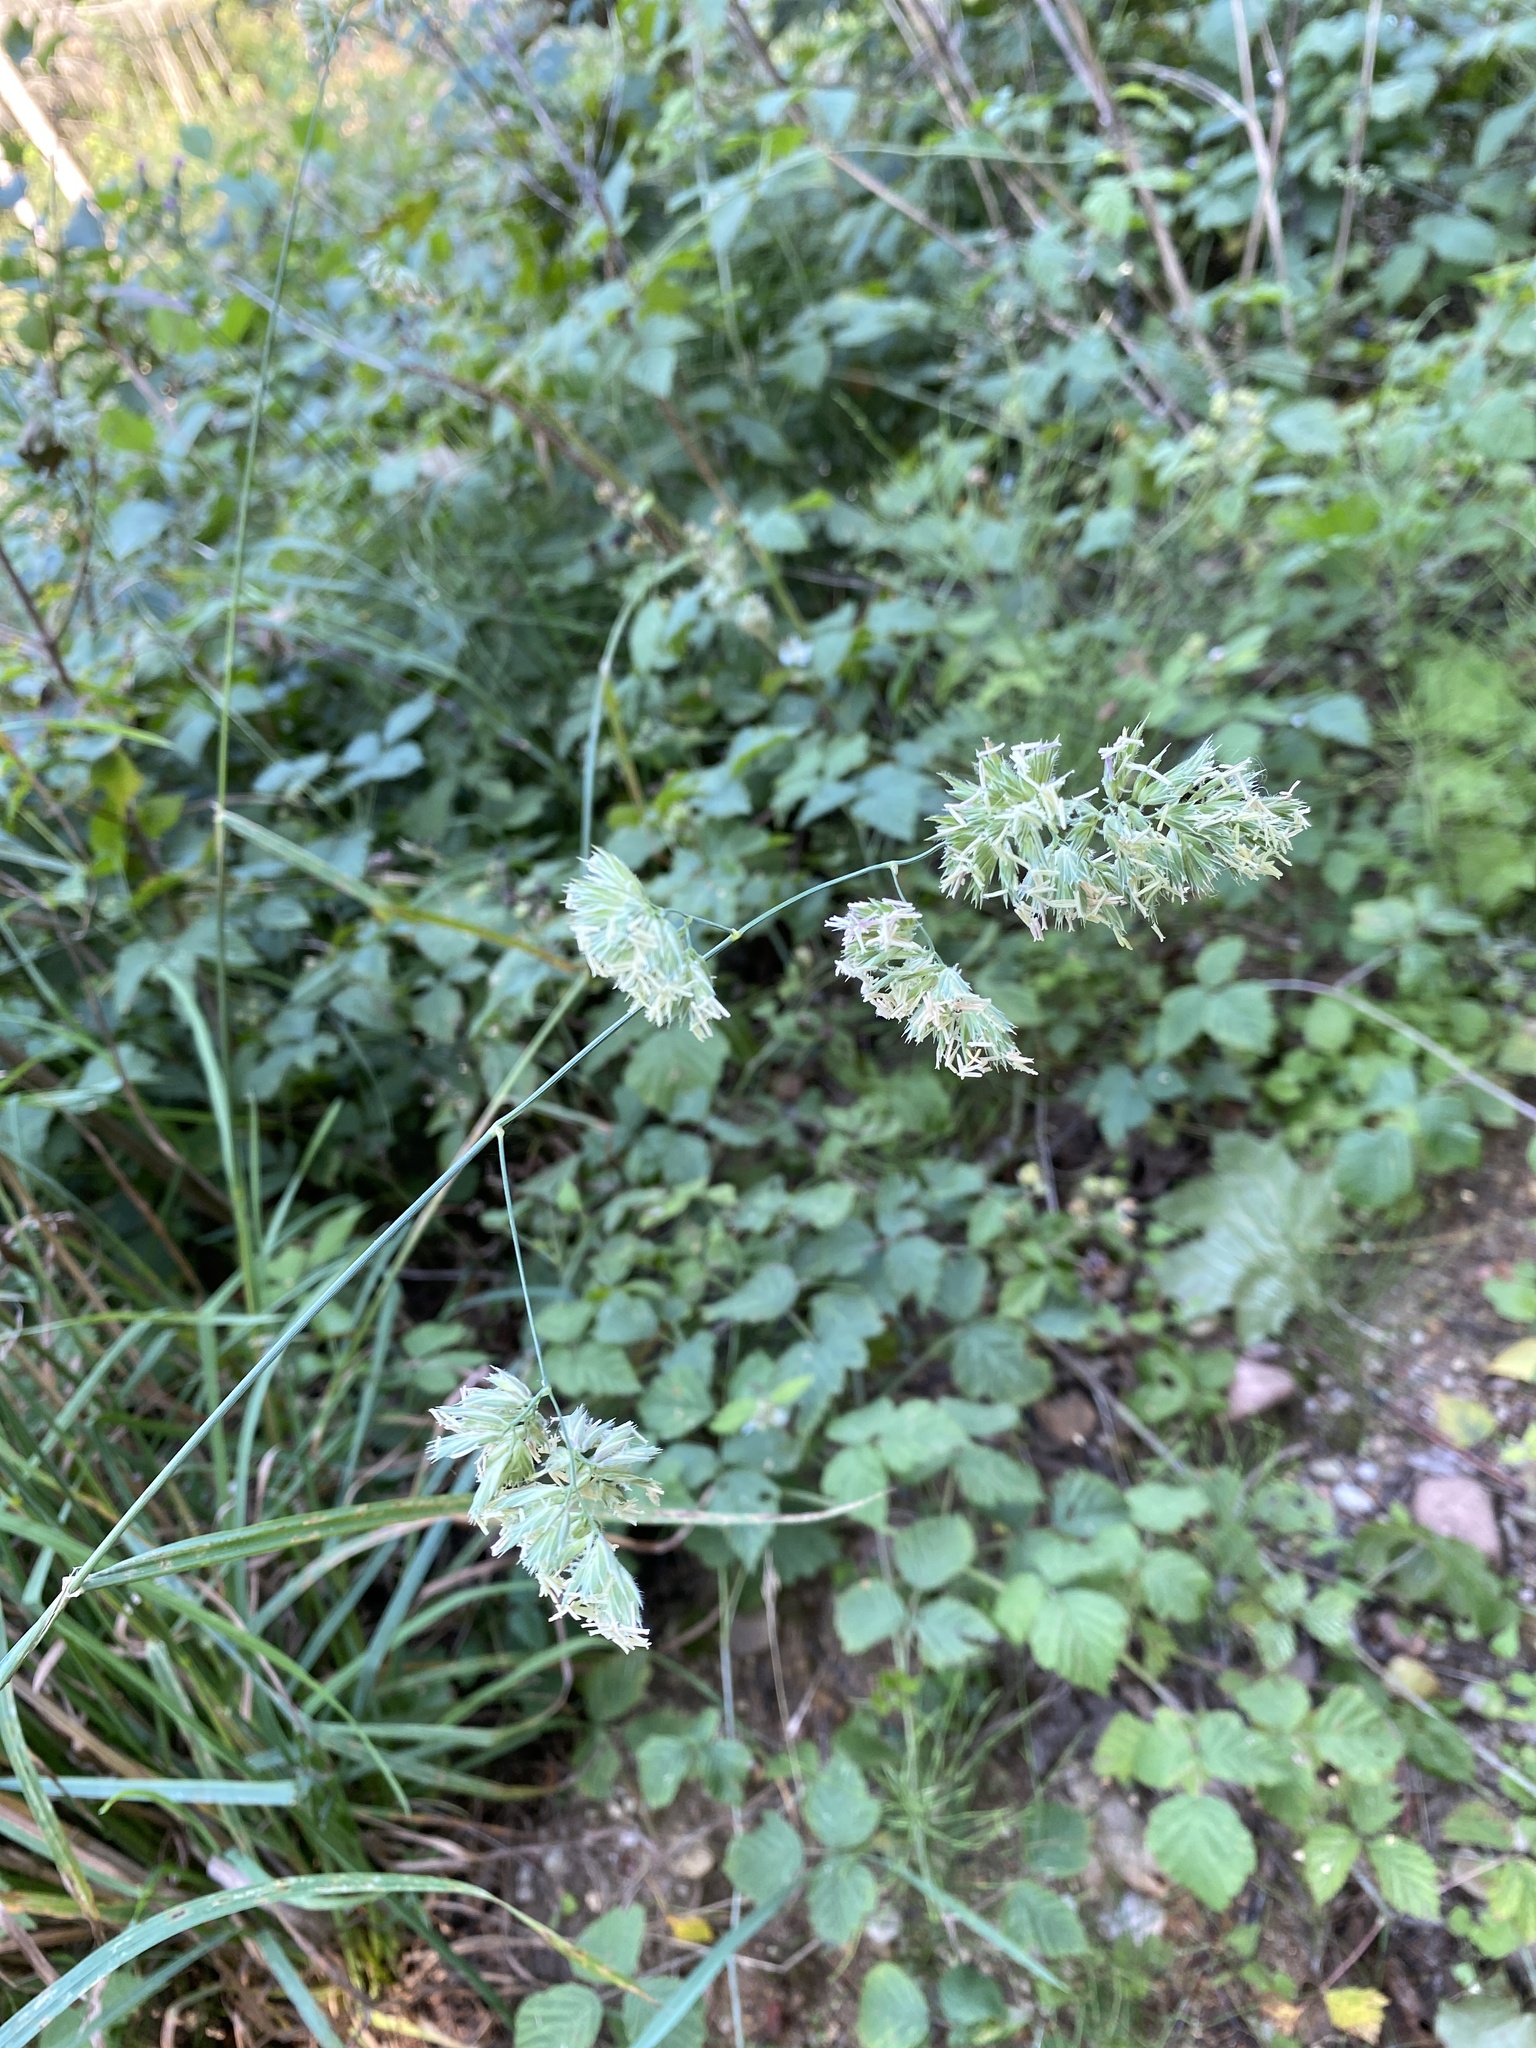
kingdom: Plantae
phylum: Tracheophyta
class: Liliopsida
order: Poales
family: Poaceae
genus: Dactylis
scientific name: Dactylis glomerata
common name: Orchardgrass
